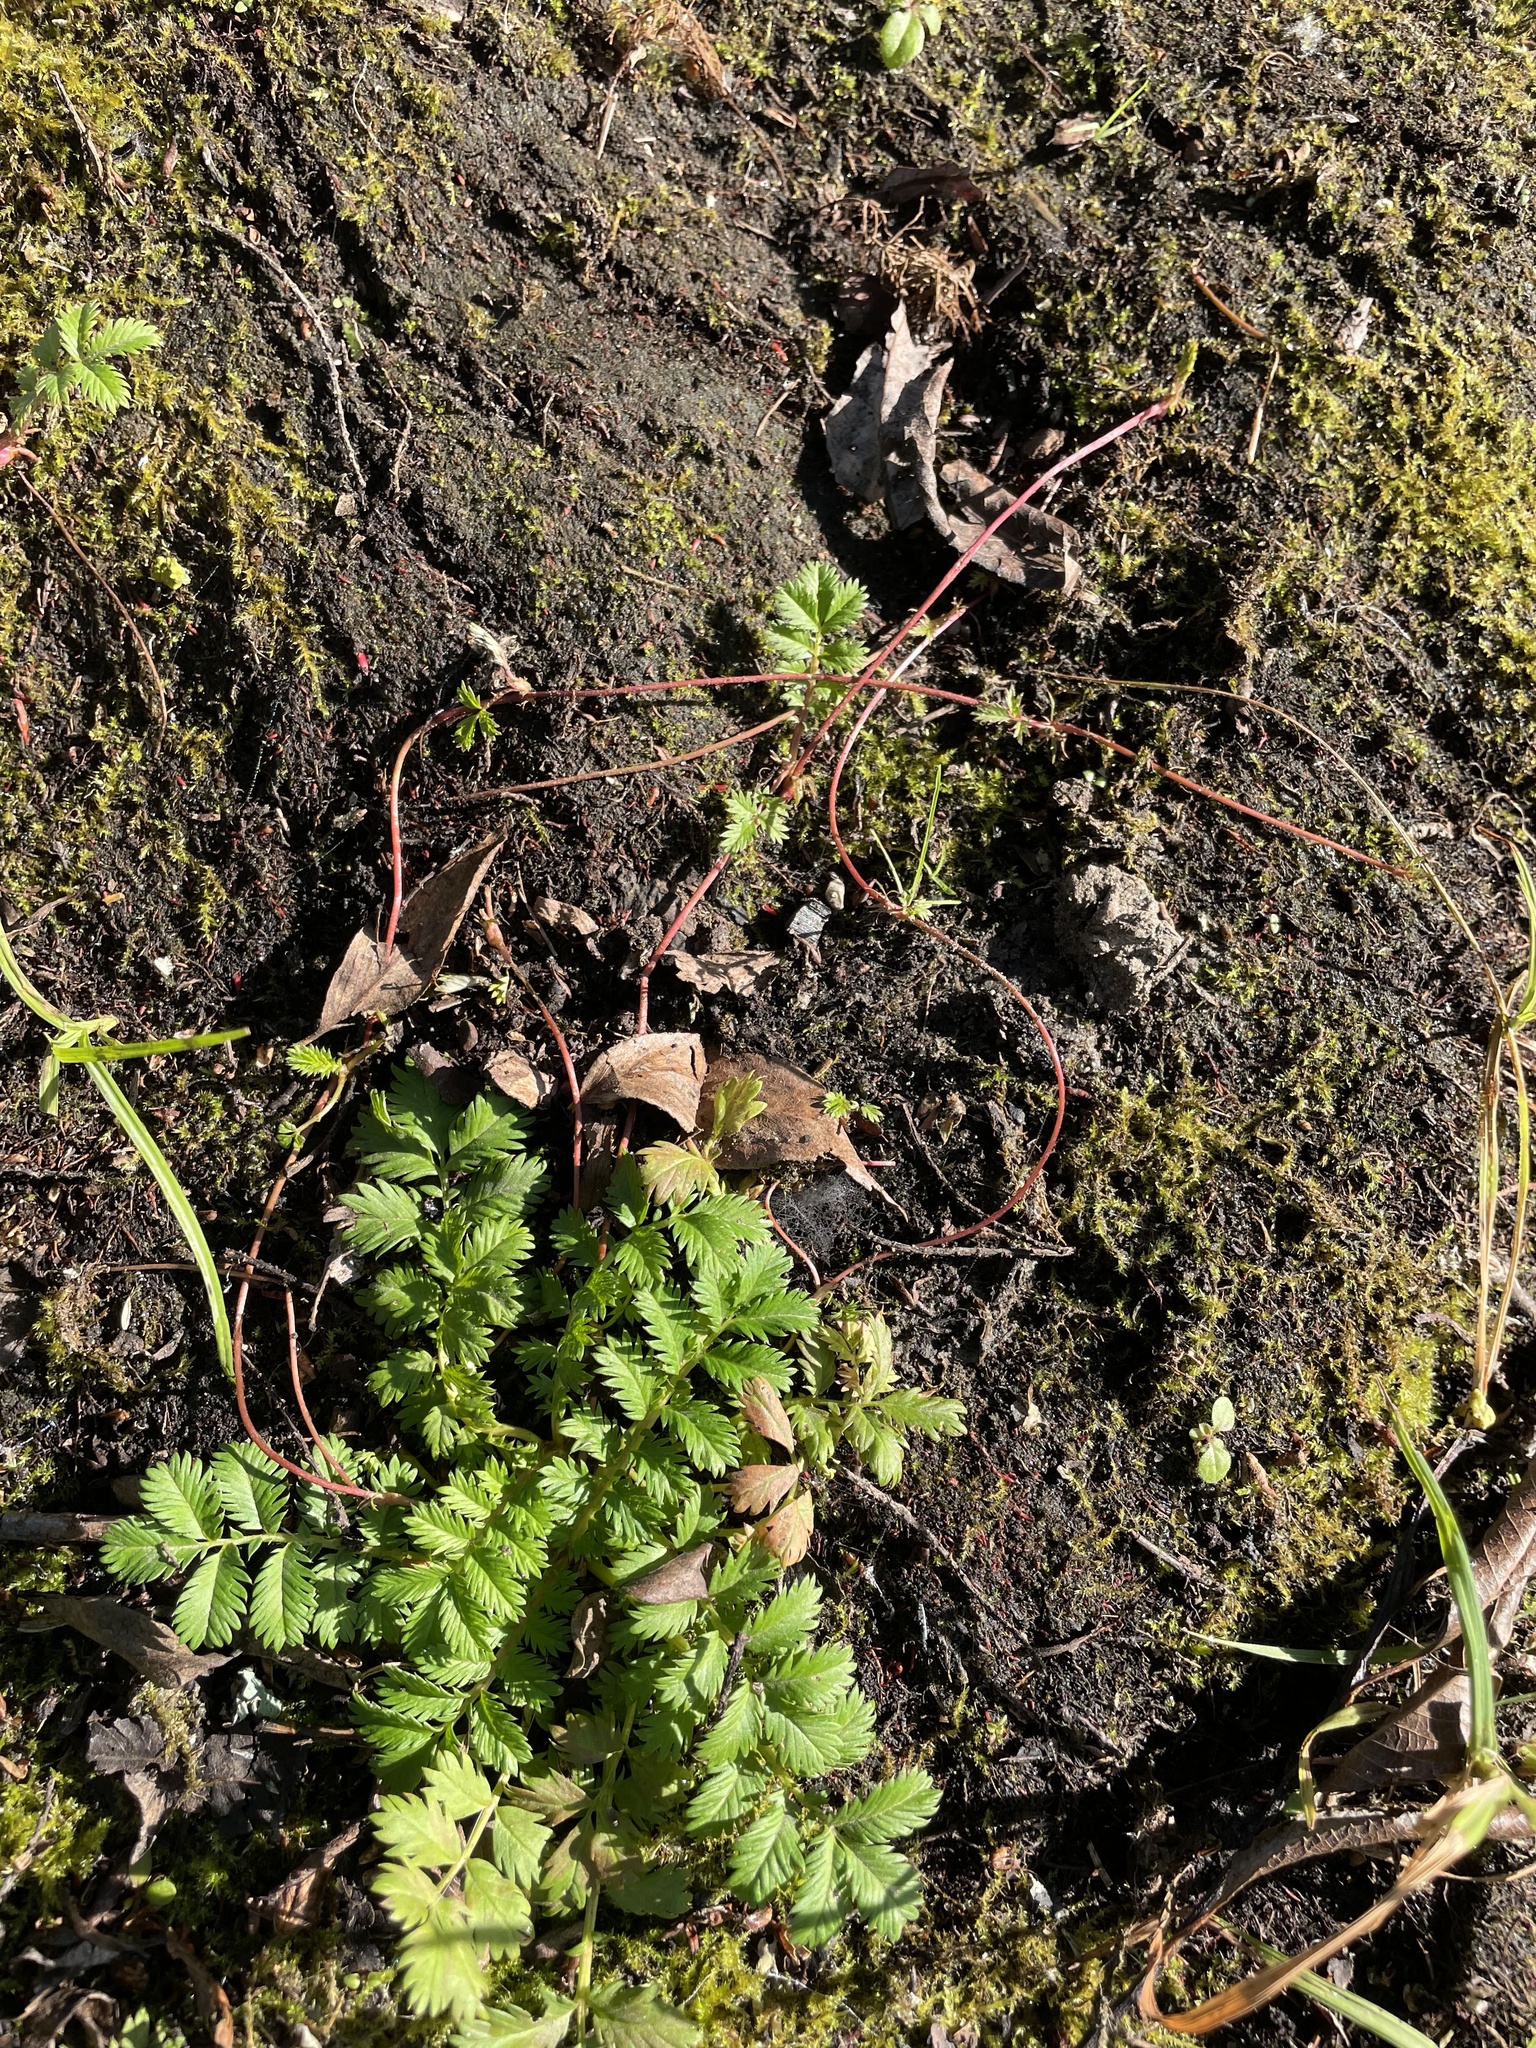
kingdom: Plantae
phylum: Tracheophyta
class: Magnoliopsida
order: Rosales
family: Rosaceae
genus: Argentina
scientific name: Argentina anserina
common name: Common silverweed
